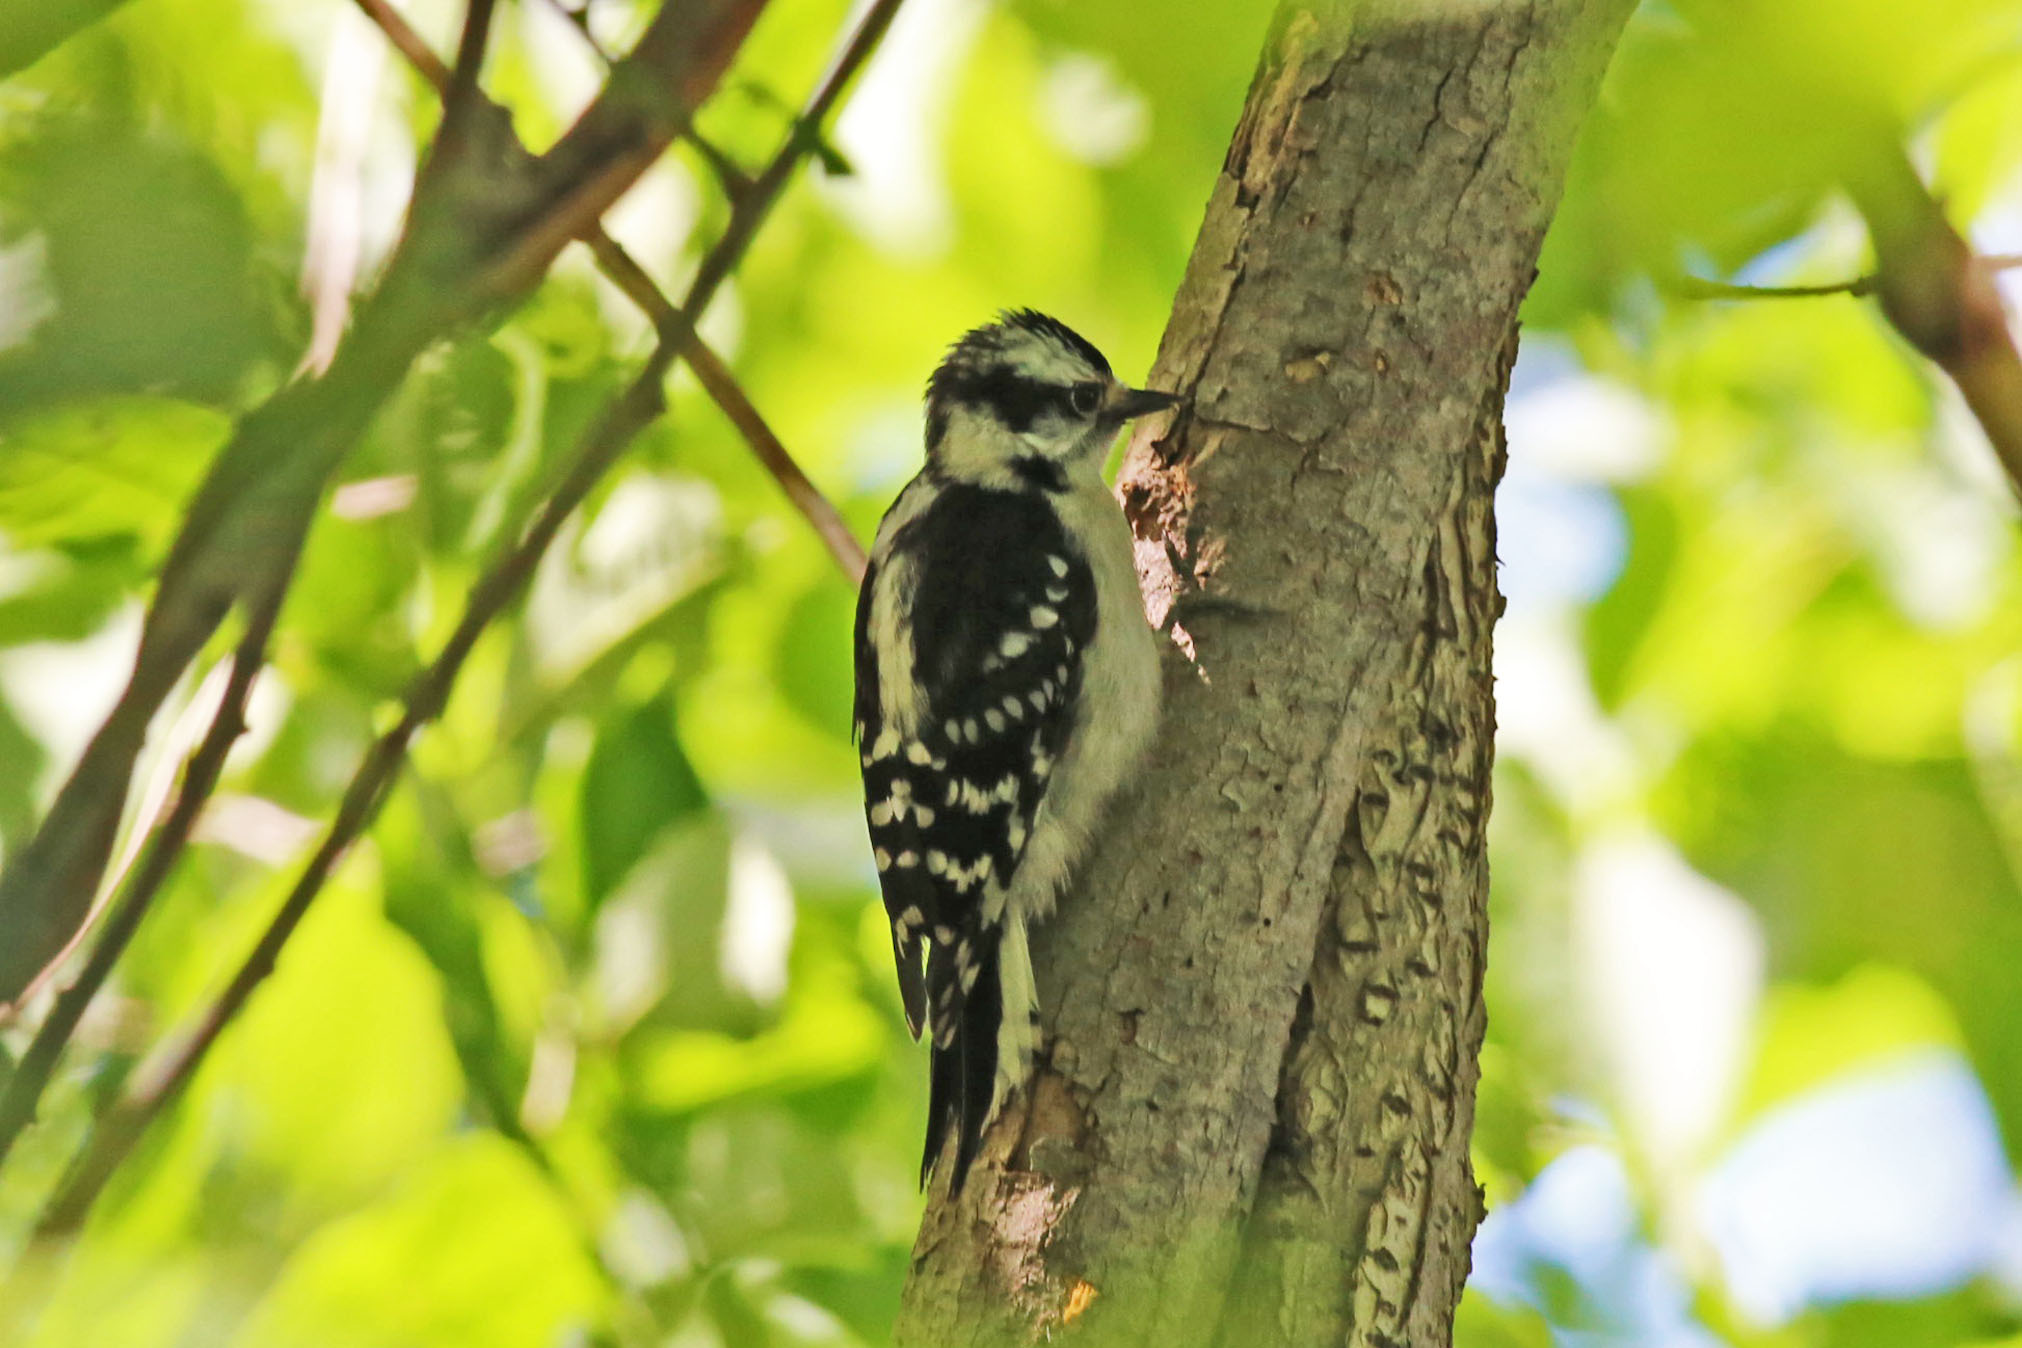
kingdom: Animalia
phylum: Chordata
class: Aves
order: Piciformes
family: Picidae
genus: Dryobates
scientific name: Dryobates pubescens
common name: Downy woodpecker
